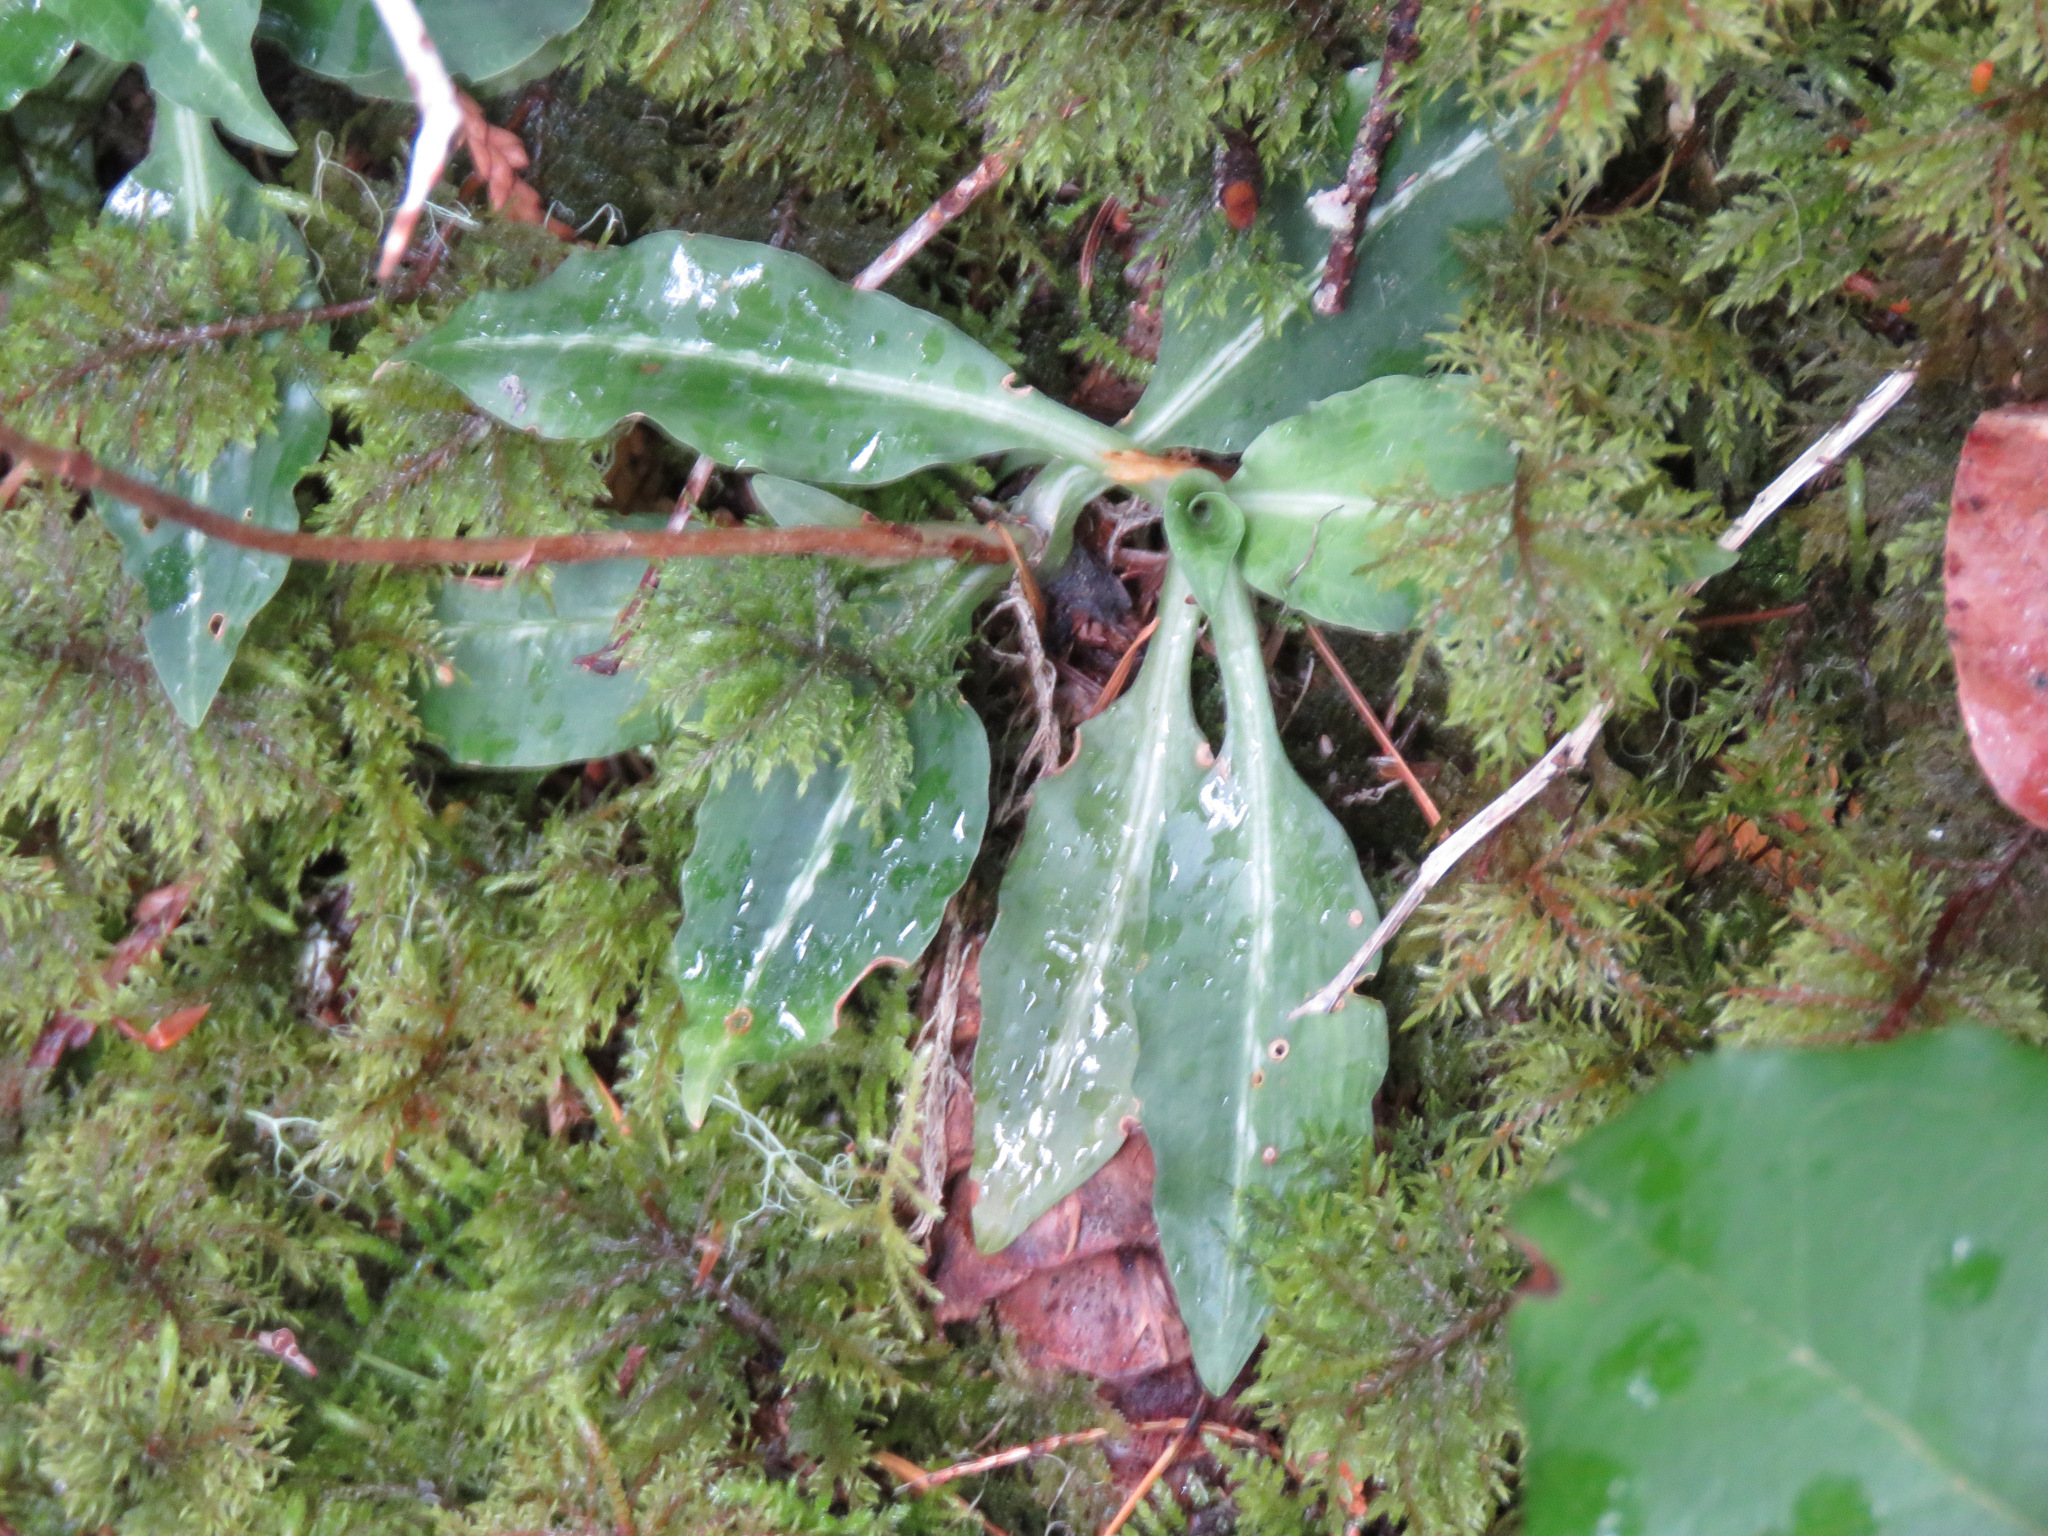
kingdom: Plantae
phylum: Tracheophyta
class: Liliopsida
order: Asparagales
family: Orchidaceae
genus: Goodyera
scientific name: Goodyera oblongifolia
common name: Giant rattlesnake-plantain
